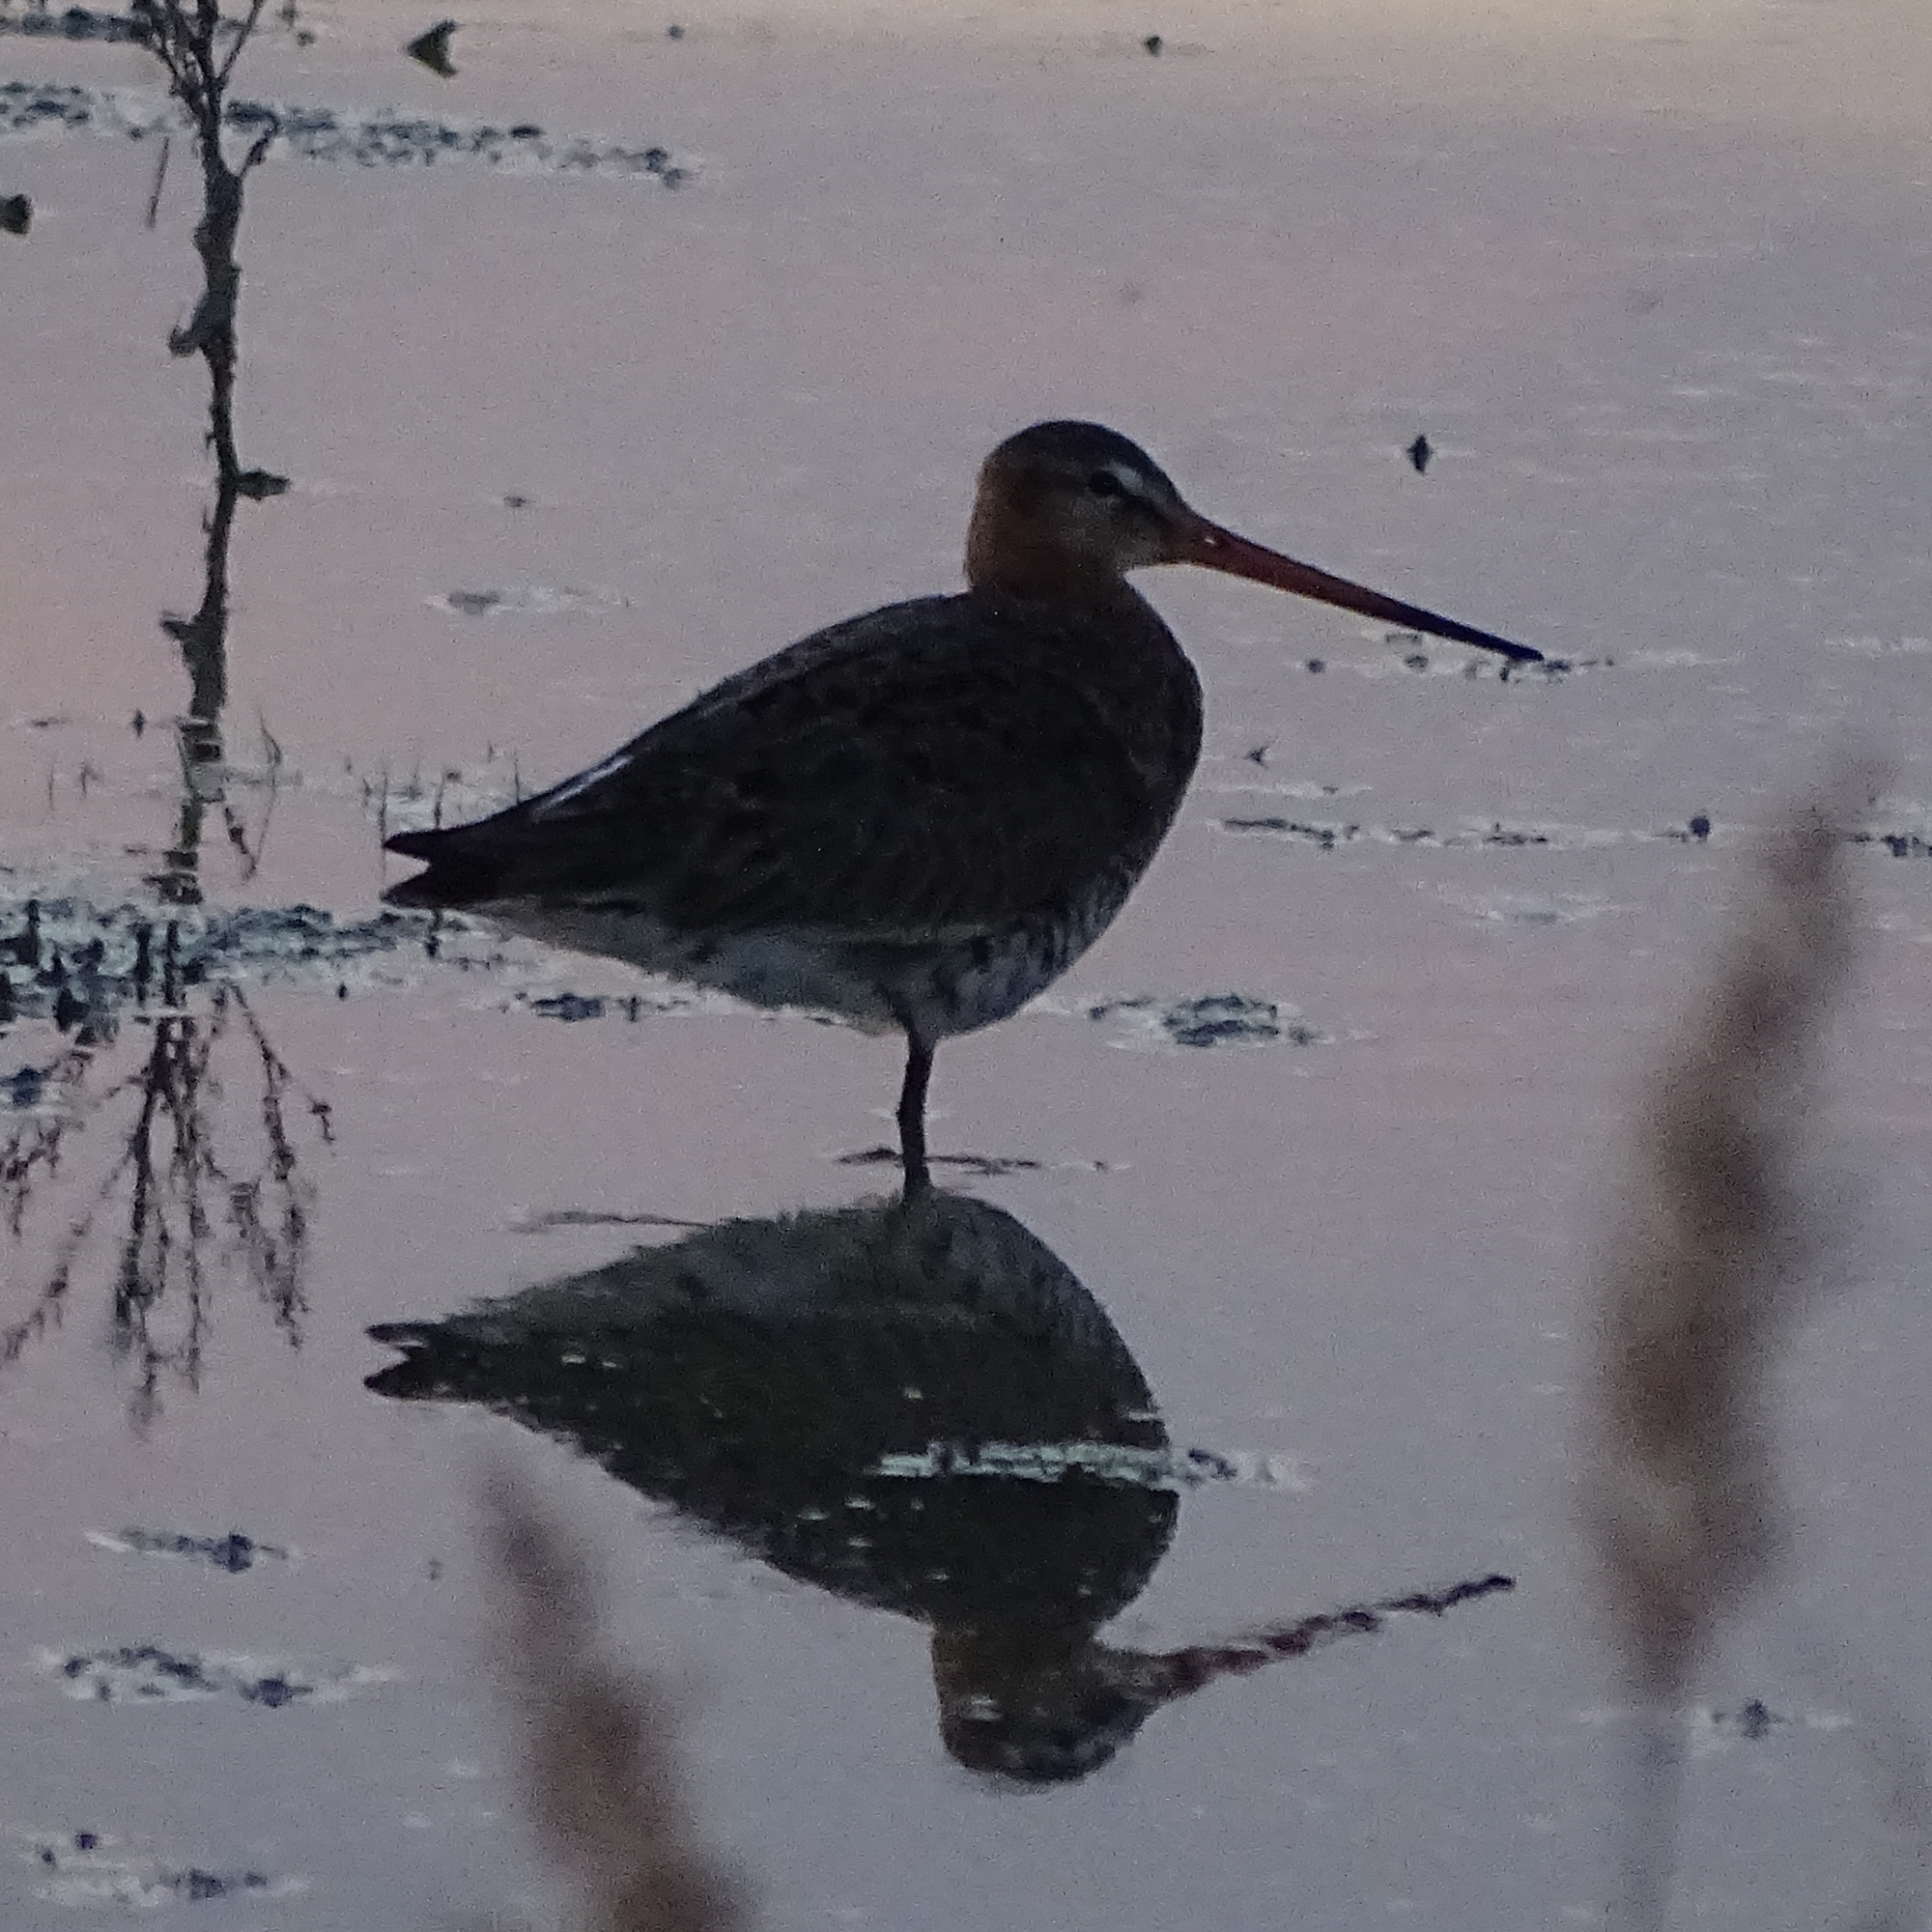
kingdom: Animalia
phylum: Chordata
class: Aves
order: Charadriiformes
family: Scolopacidae
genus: Limosa
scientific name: Limosa limosa
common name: Black-tailed godwit
